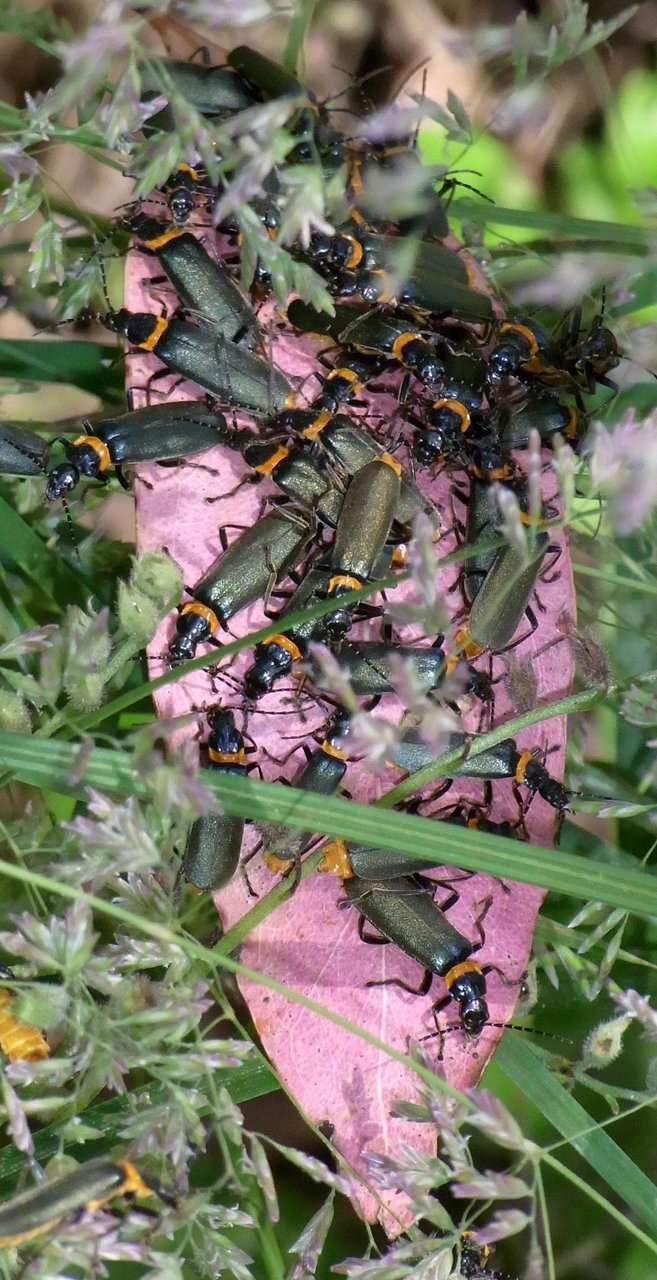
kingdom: Animalia
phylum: Arthropoda
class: Insecta
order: Coleoptera
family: Cantharidae
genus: Chauliognathus
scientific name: Chauliognathus
